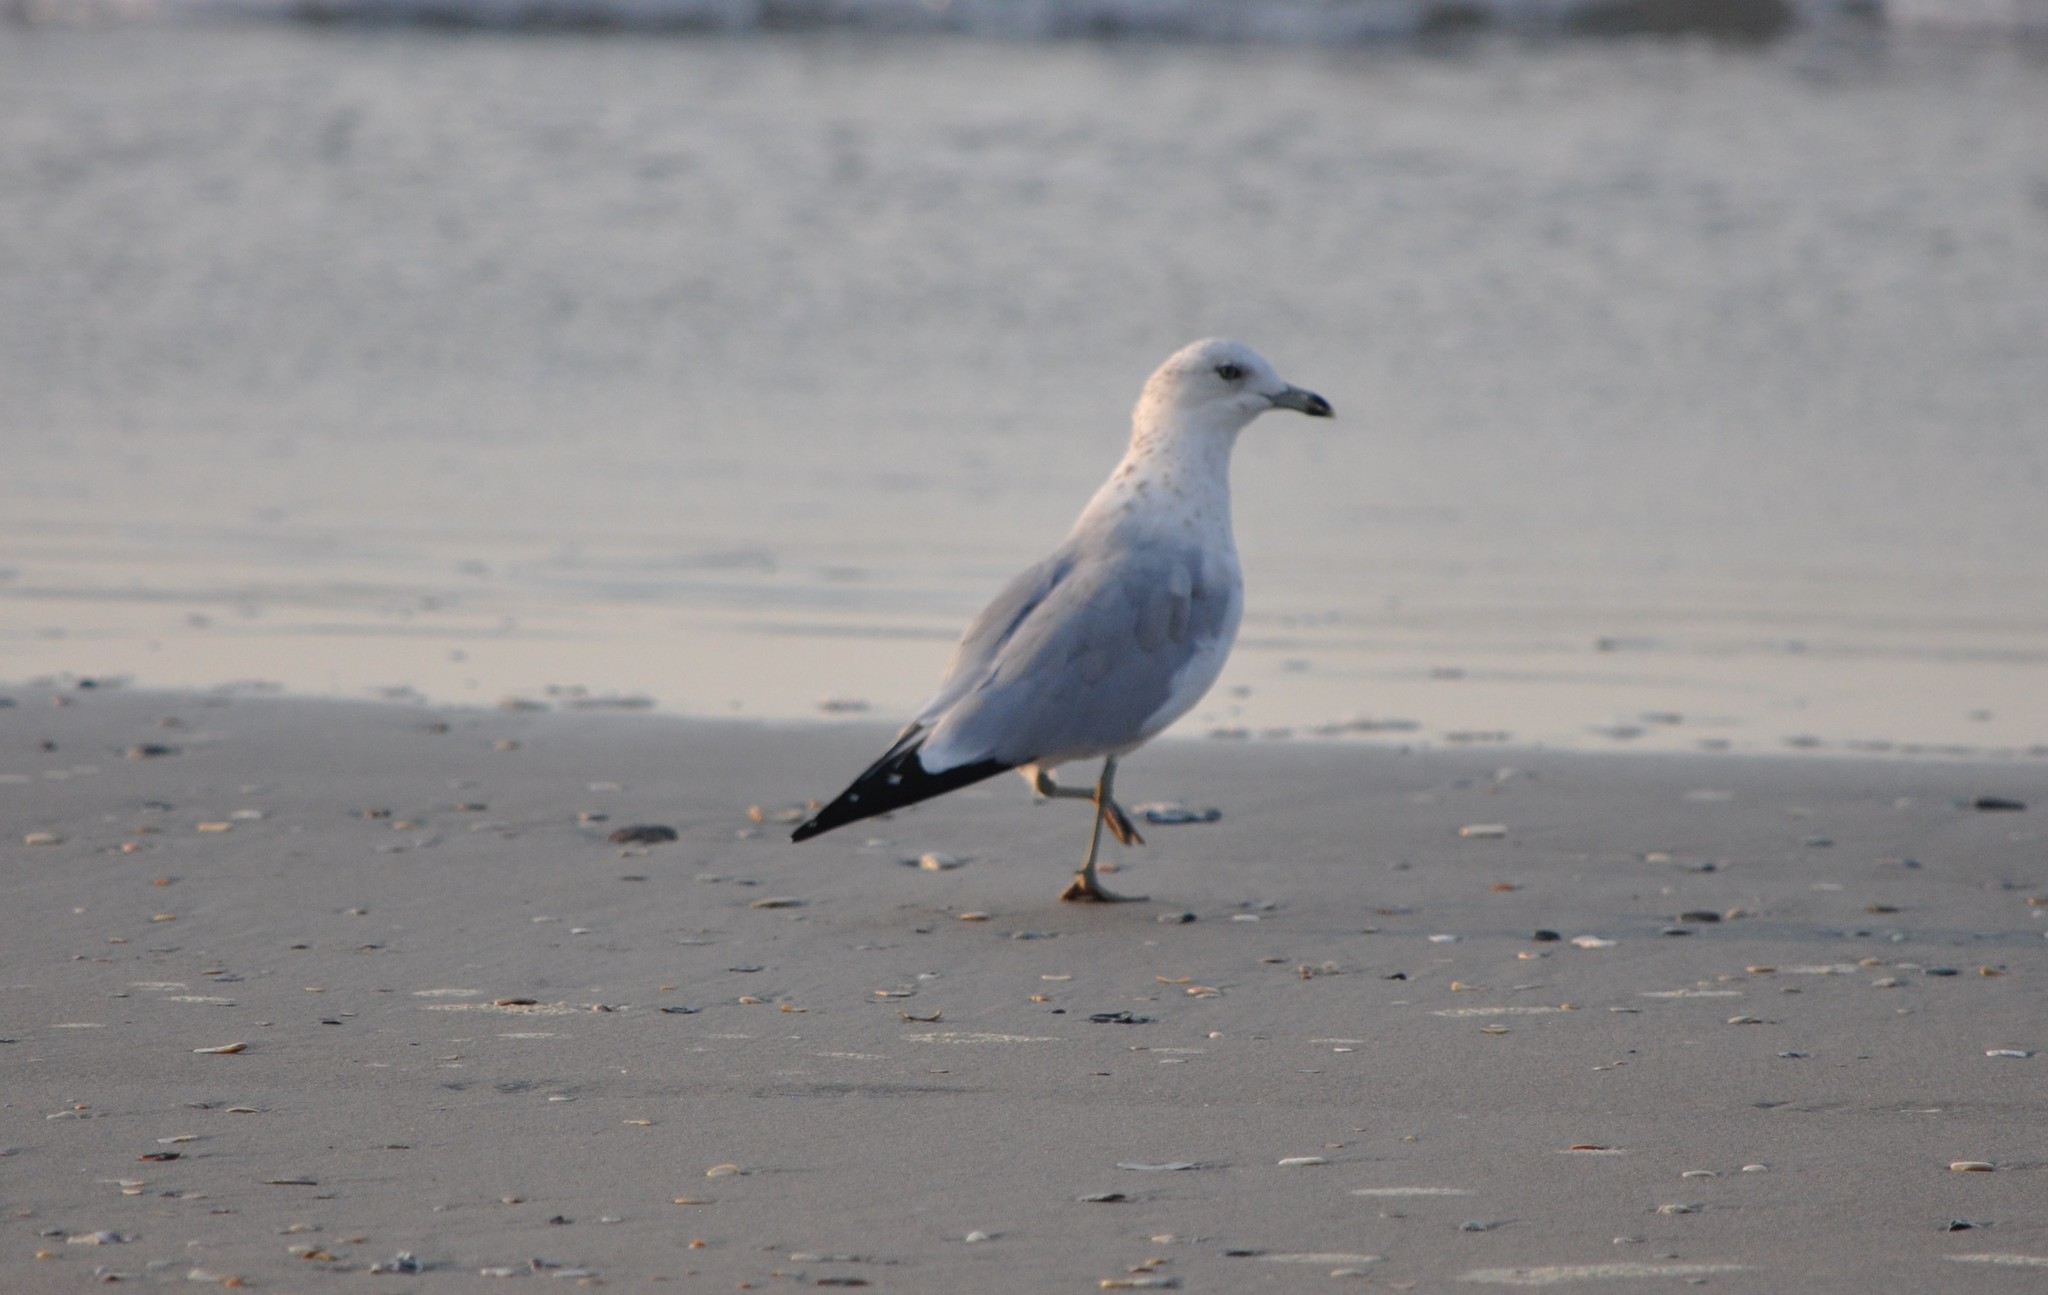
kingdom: Animalia
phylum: Chordata
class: Aves
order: Charadriiformes
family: Laridae
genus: Larus
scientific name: Larus delawarensis
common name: Ring-billed gull
